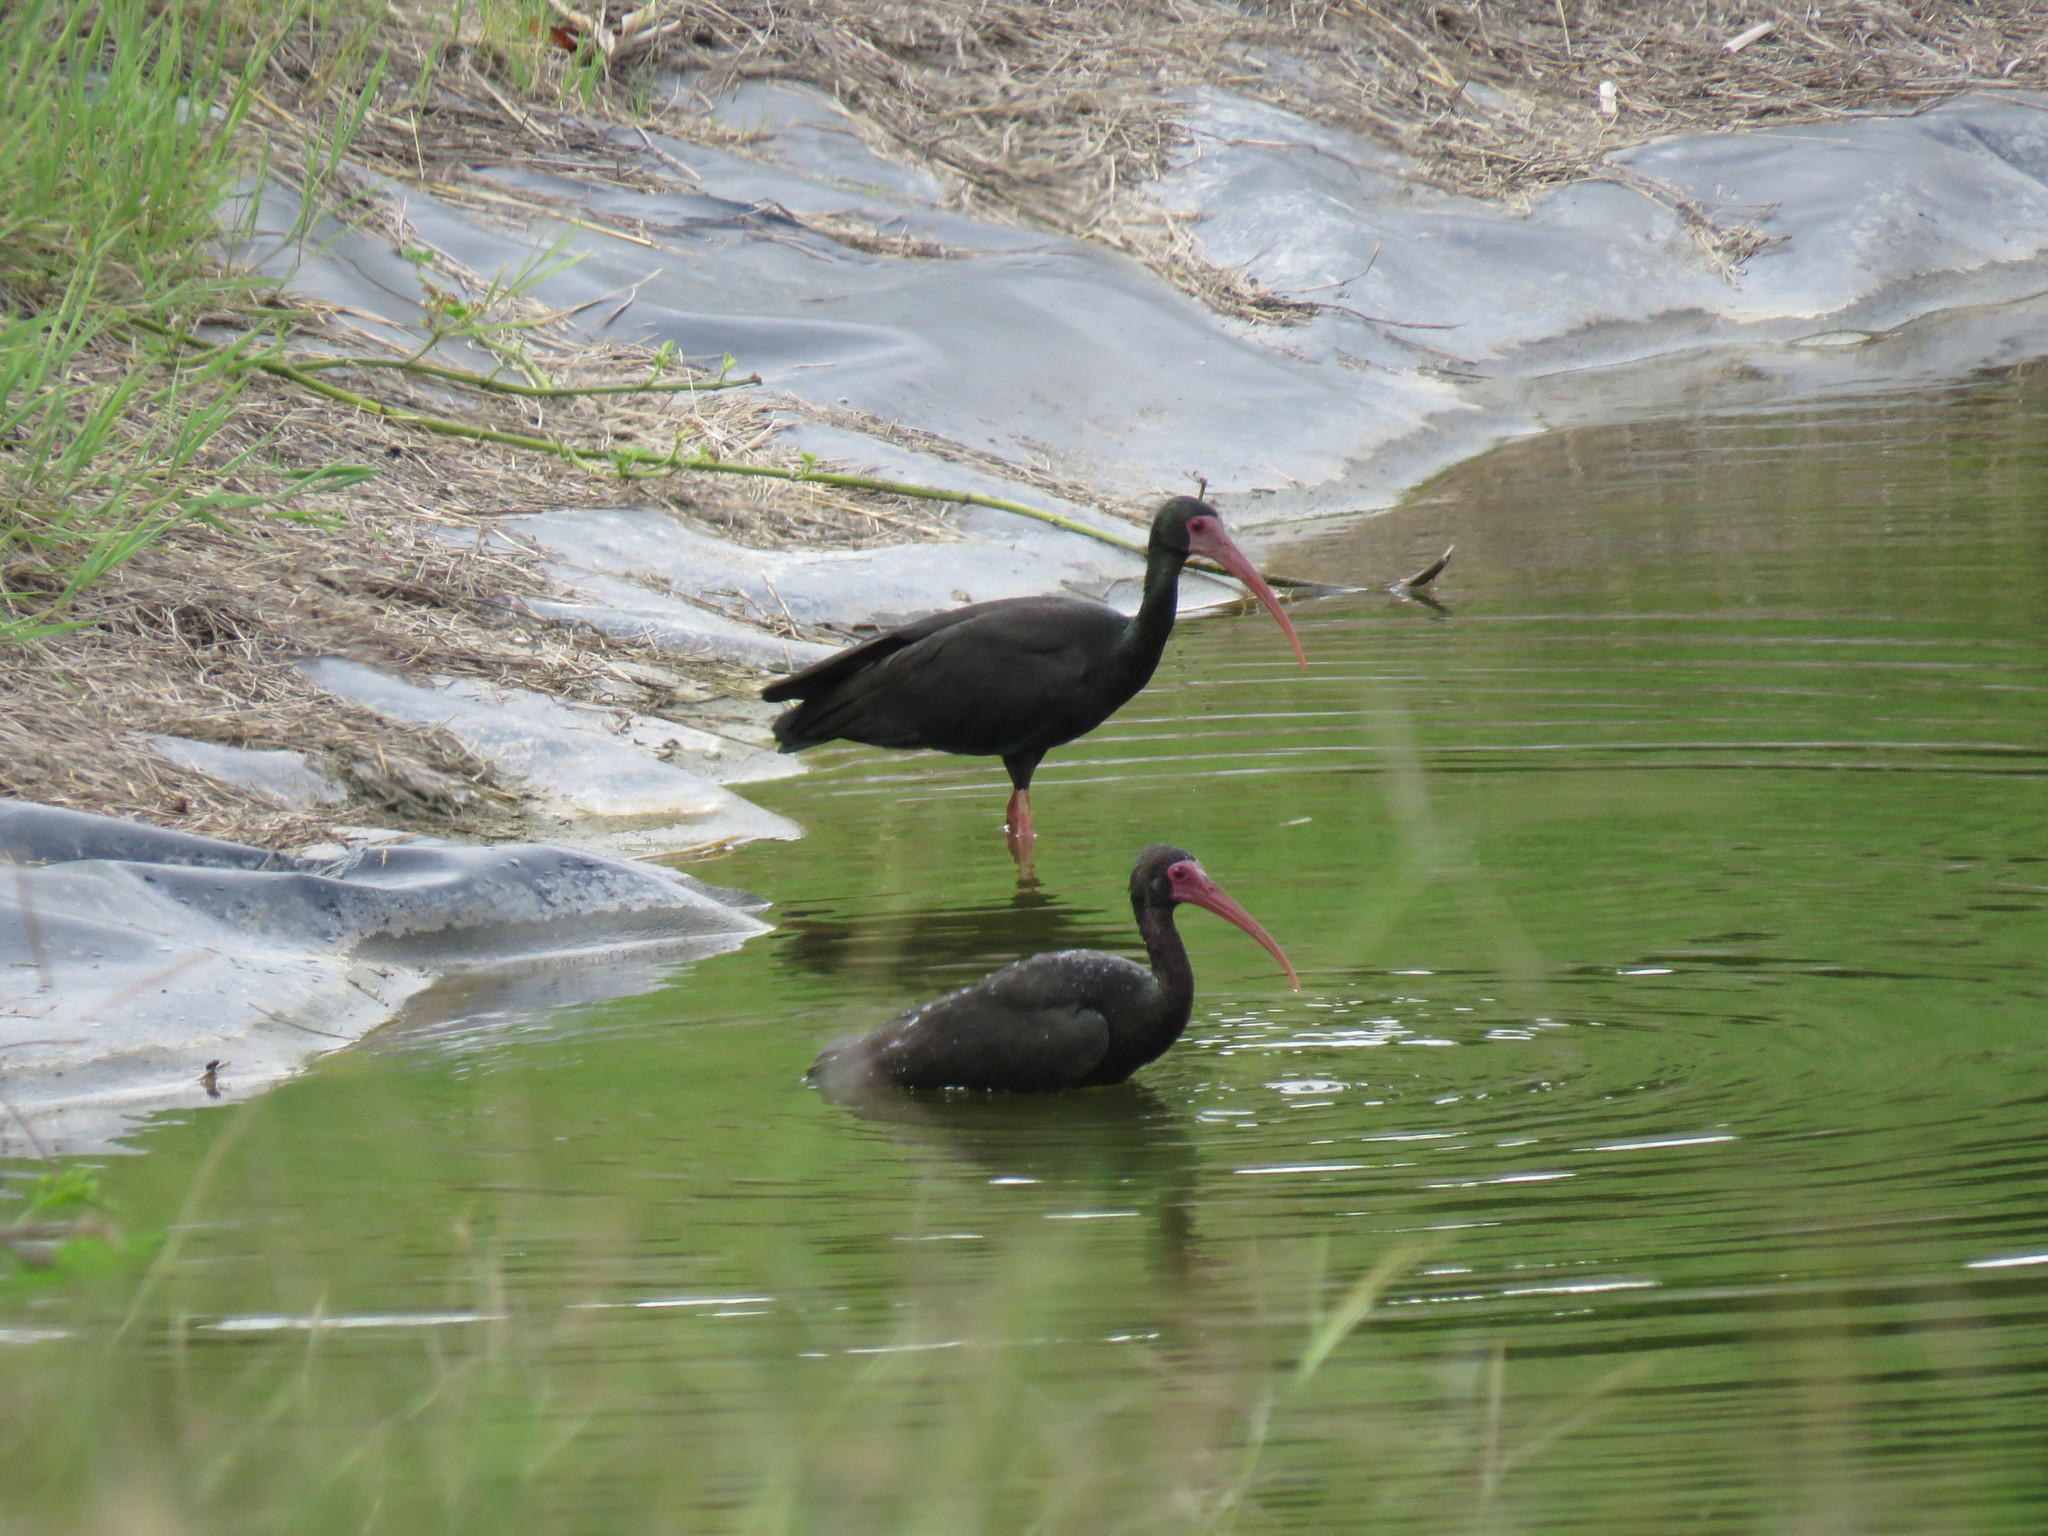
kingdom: Animalia
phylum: Chordata
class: Aves
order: Pelecaniformes
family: Threskiornithidae
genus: Phimosus
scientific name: Phimosus infuscatus
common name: Bare-faced ibis
